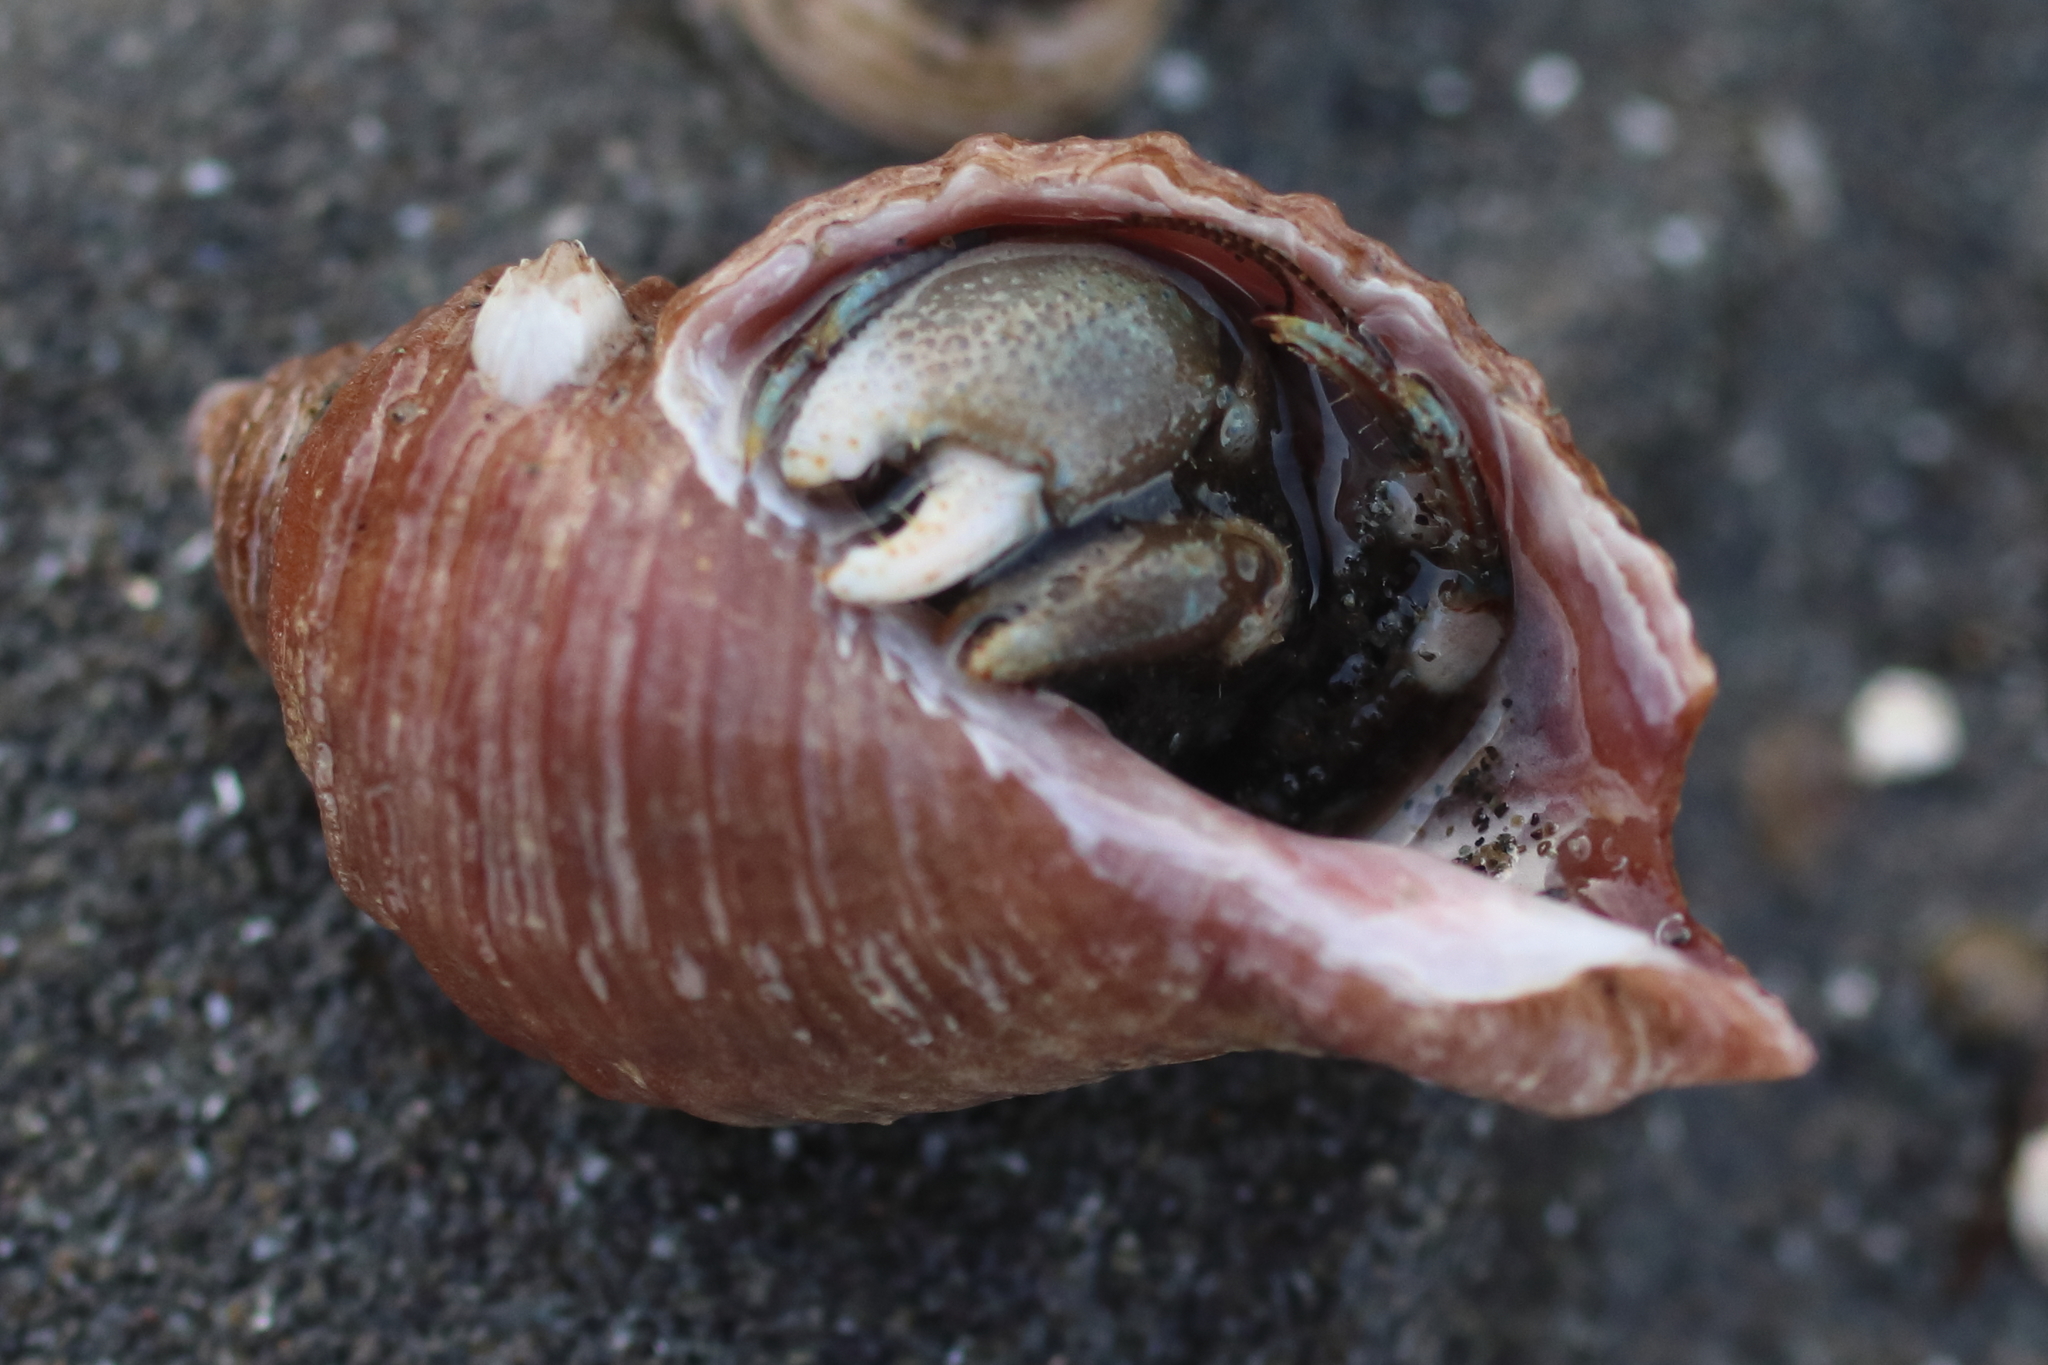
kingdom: Animalia
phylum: Arthropoda
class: Malacostraca
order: Decapoda
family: Paguridae
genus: Pagurus
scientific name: Pagurus hirsutiusculus
